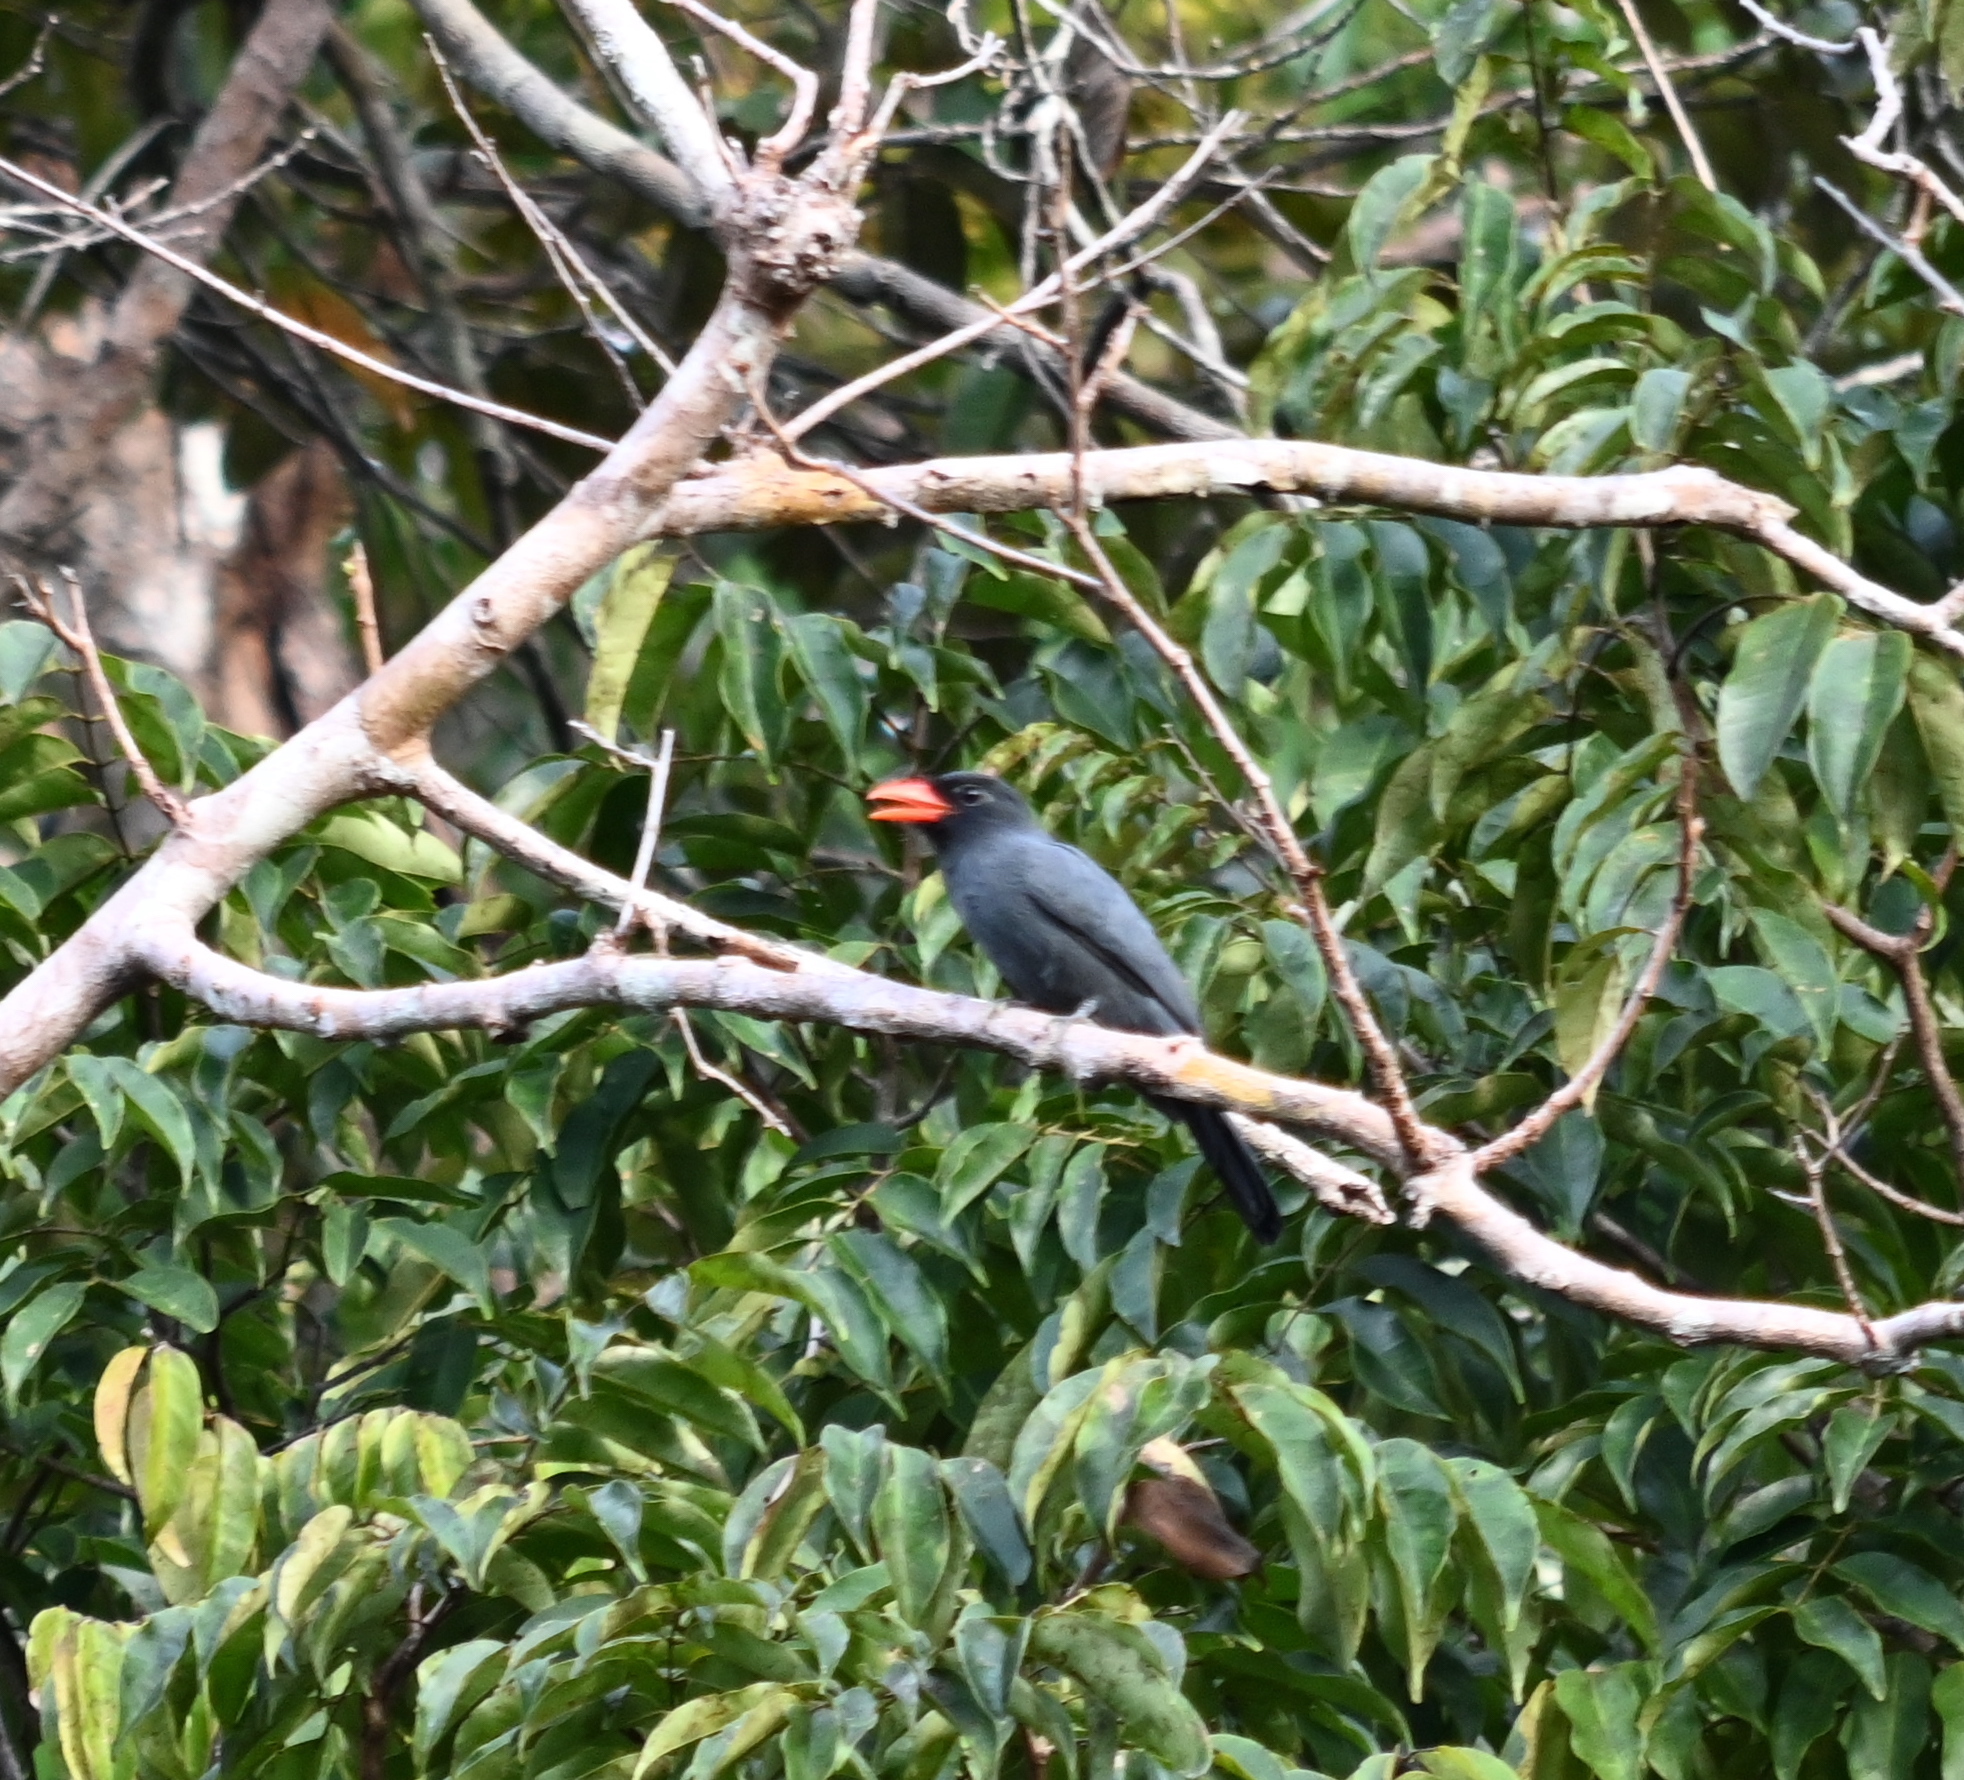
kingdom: Animalia
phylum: Chordata
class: Aves
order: Piciformes
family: Bucconidae
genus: Monasa
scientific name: Monasa nigrifrons
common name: Black-fronted nunbird
